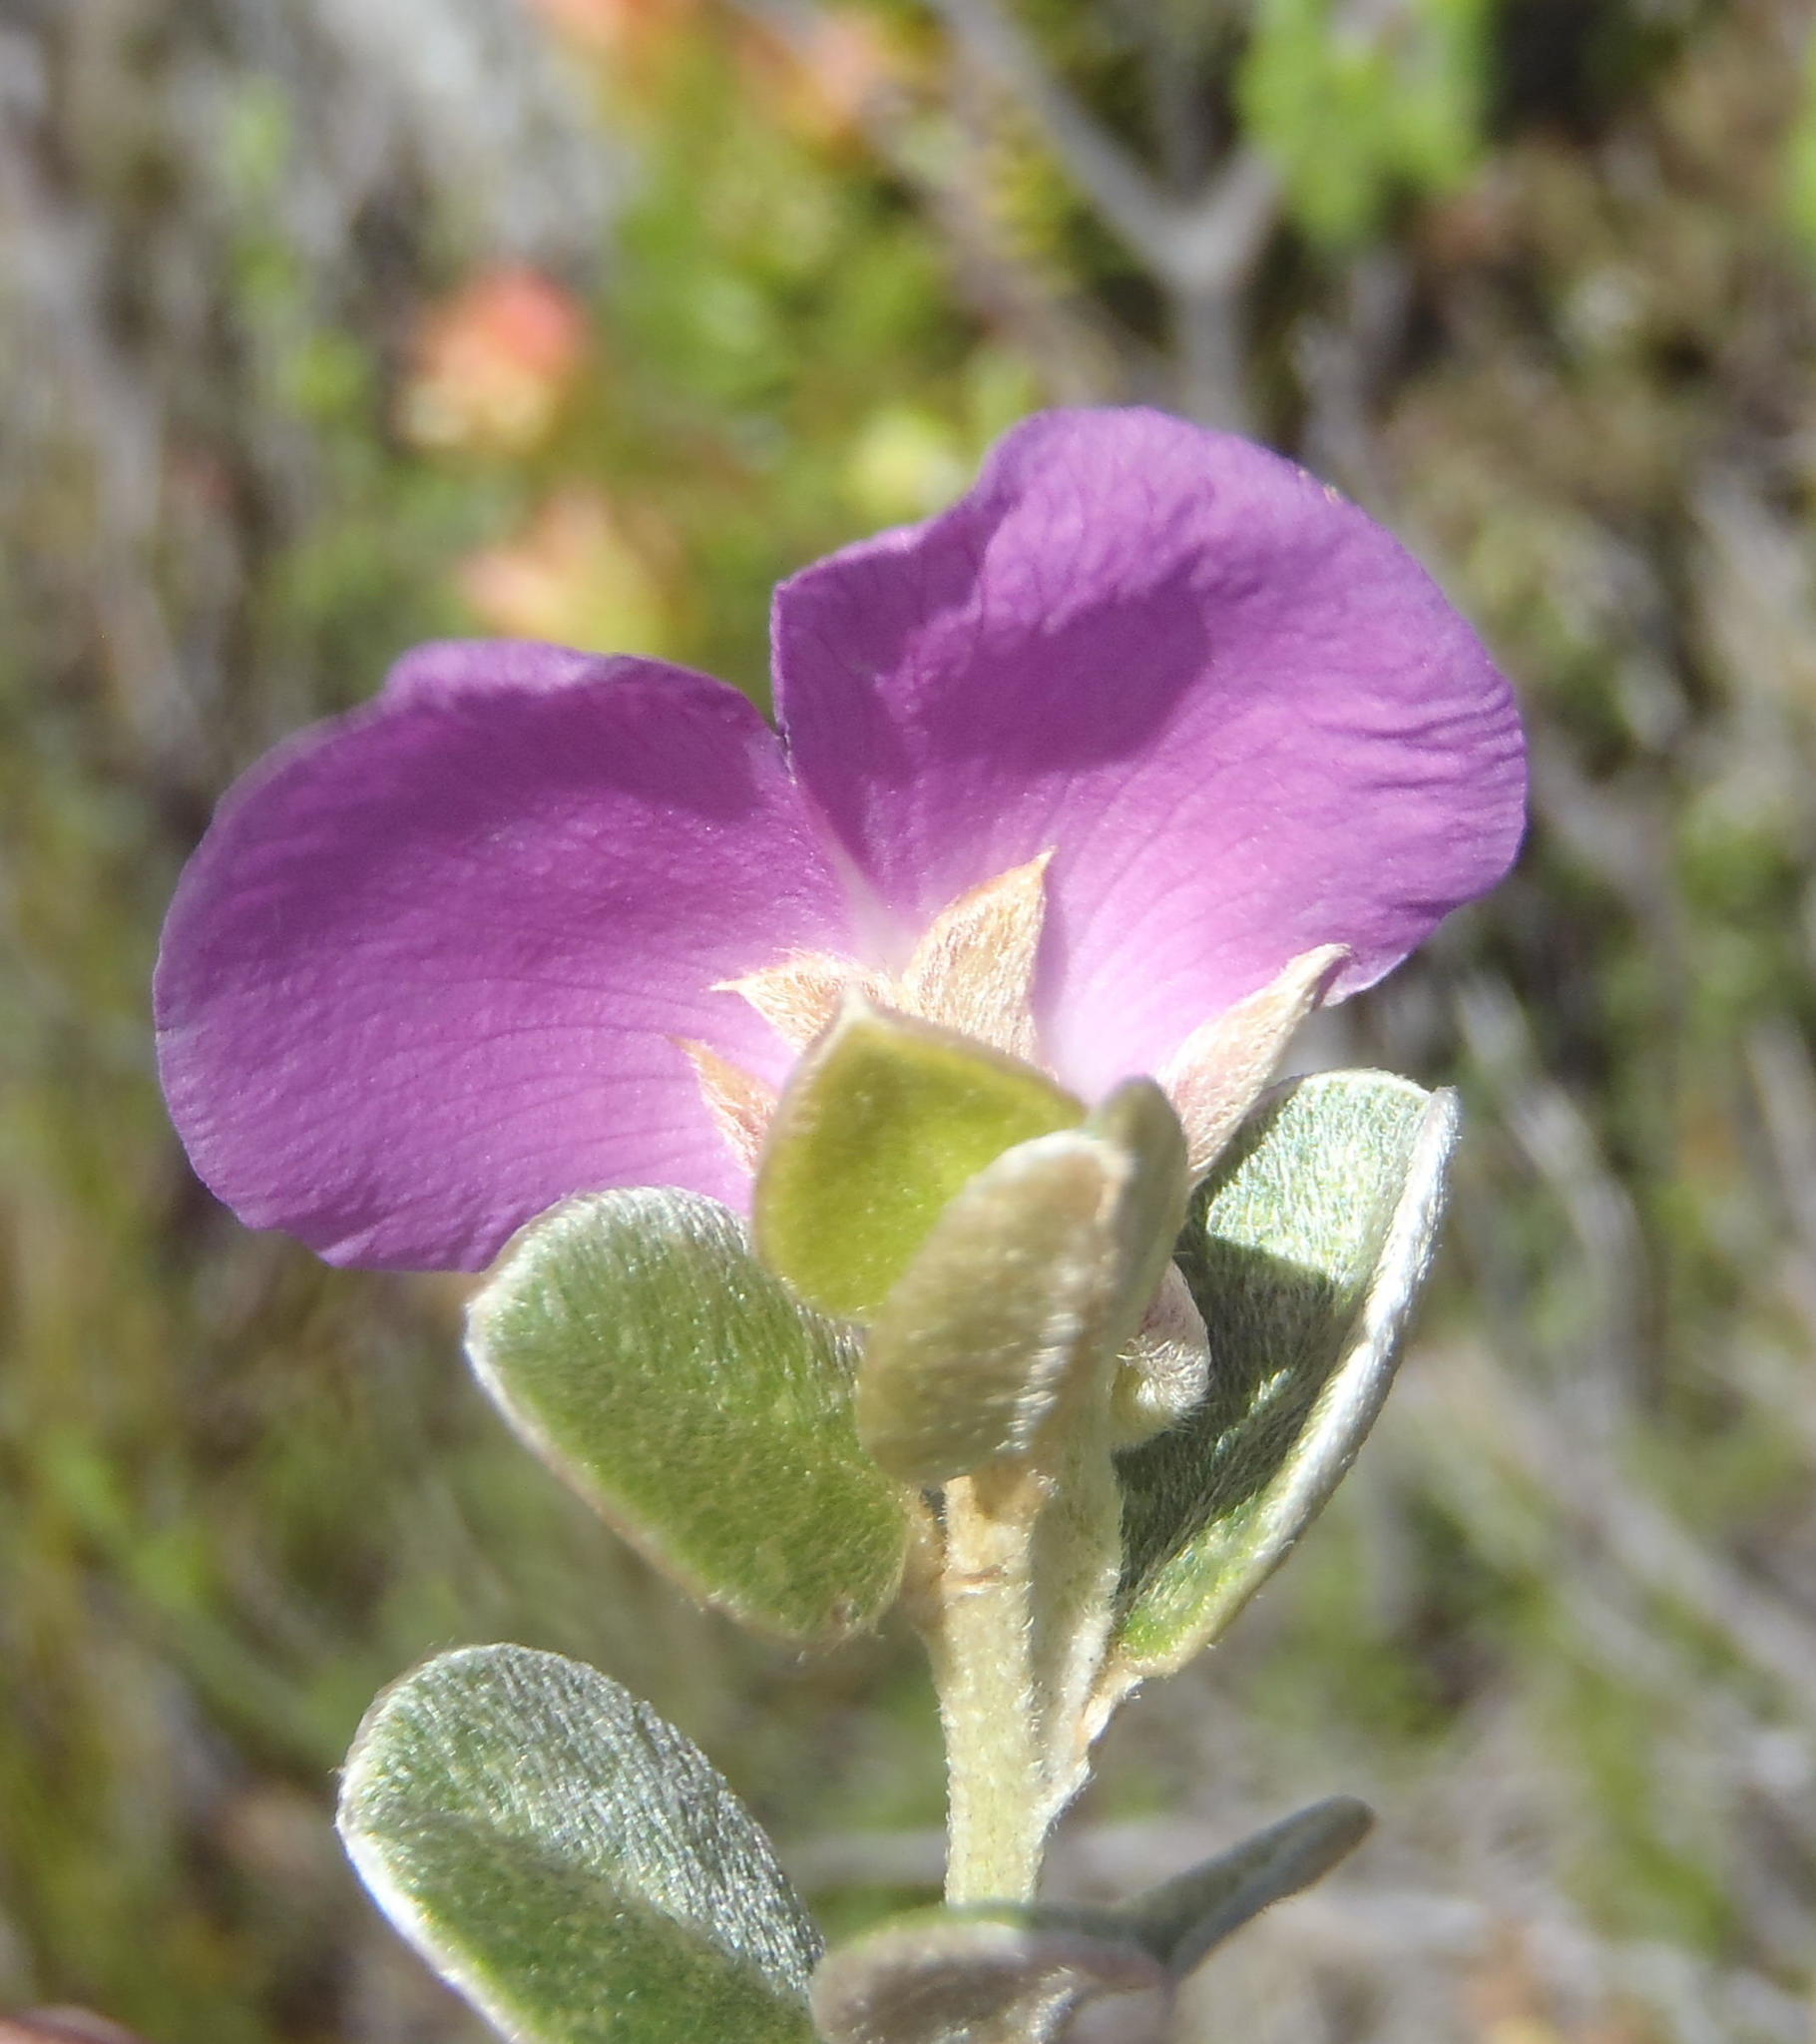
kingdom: Plantae
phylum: Tracheophyta
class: Magnoliopsida
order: Fabales
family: Fabaceae
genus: Podalyria
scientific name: Podalyria burchellii
